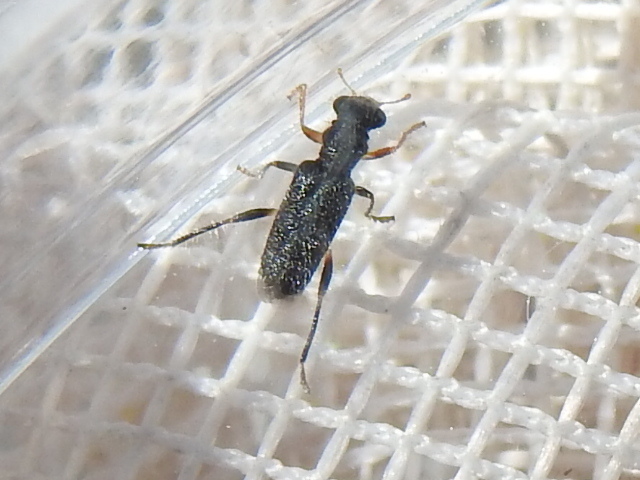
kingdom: Animalia
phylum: Arthropoda
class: Insecta
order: Coleoptera
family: Cleridae
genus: Phyllobaenus
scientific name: Phyllobaenus unifasciatus
